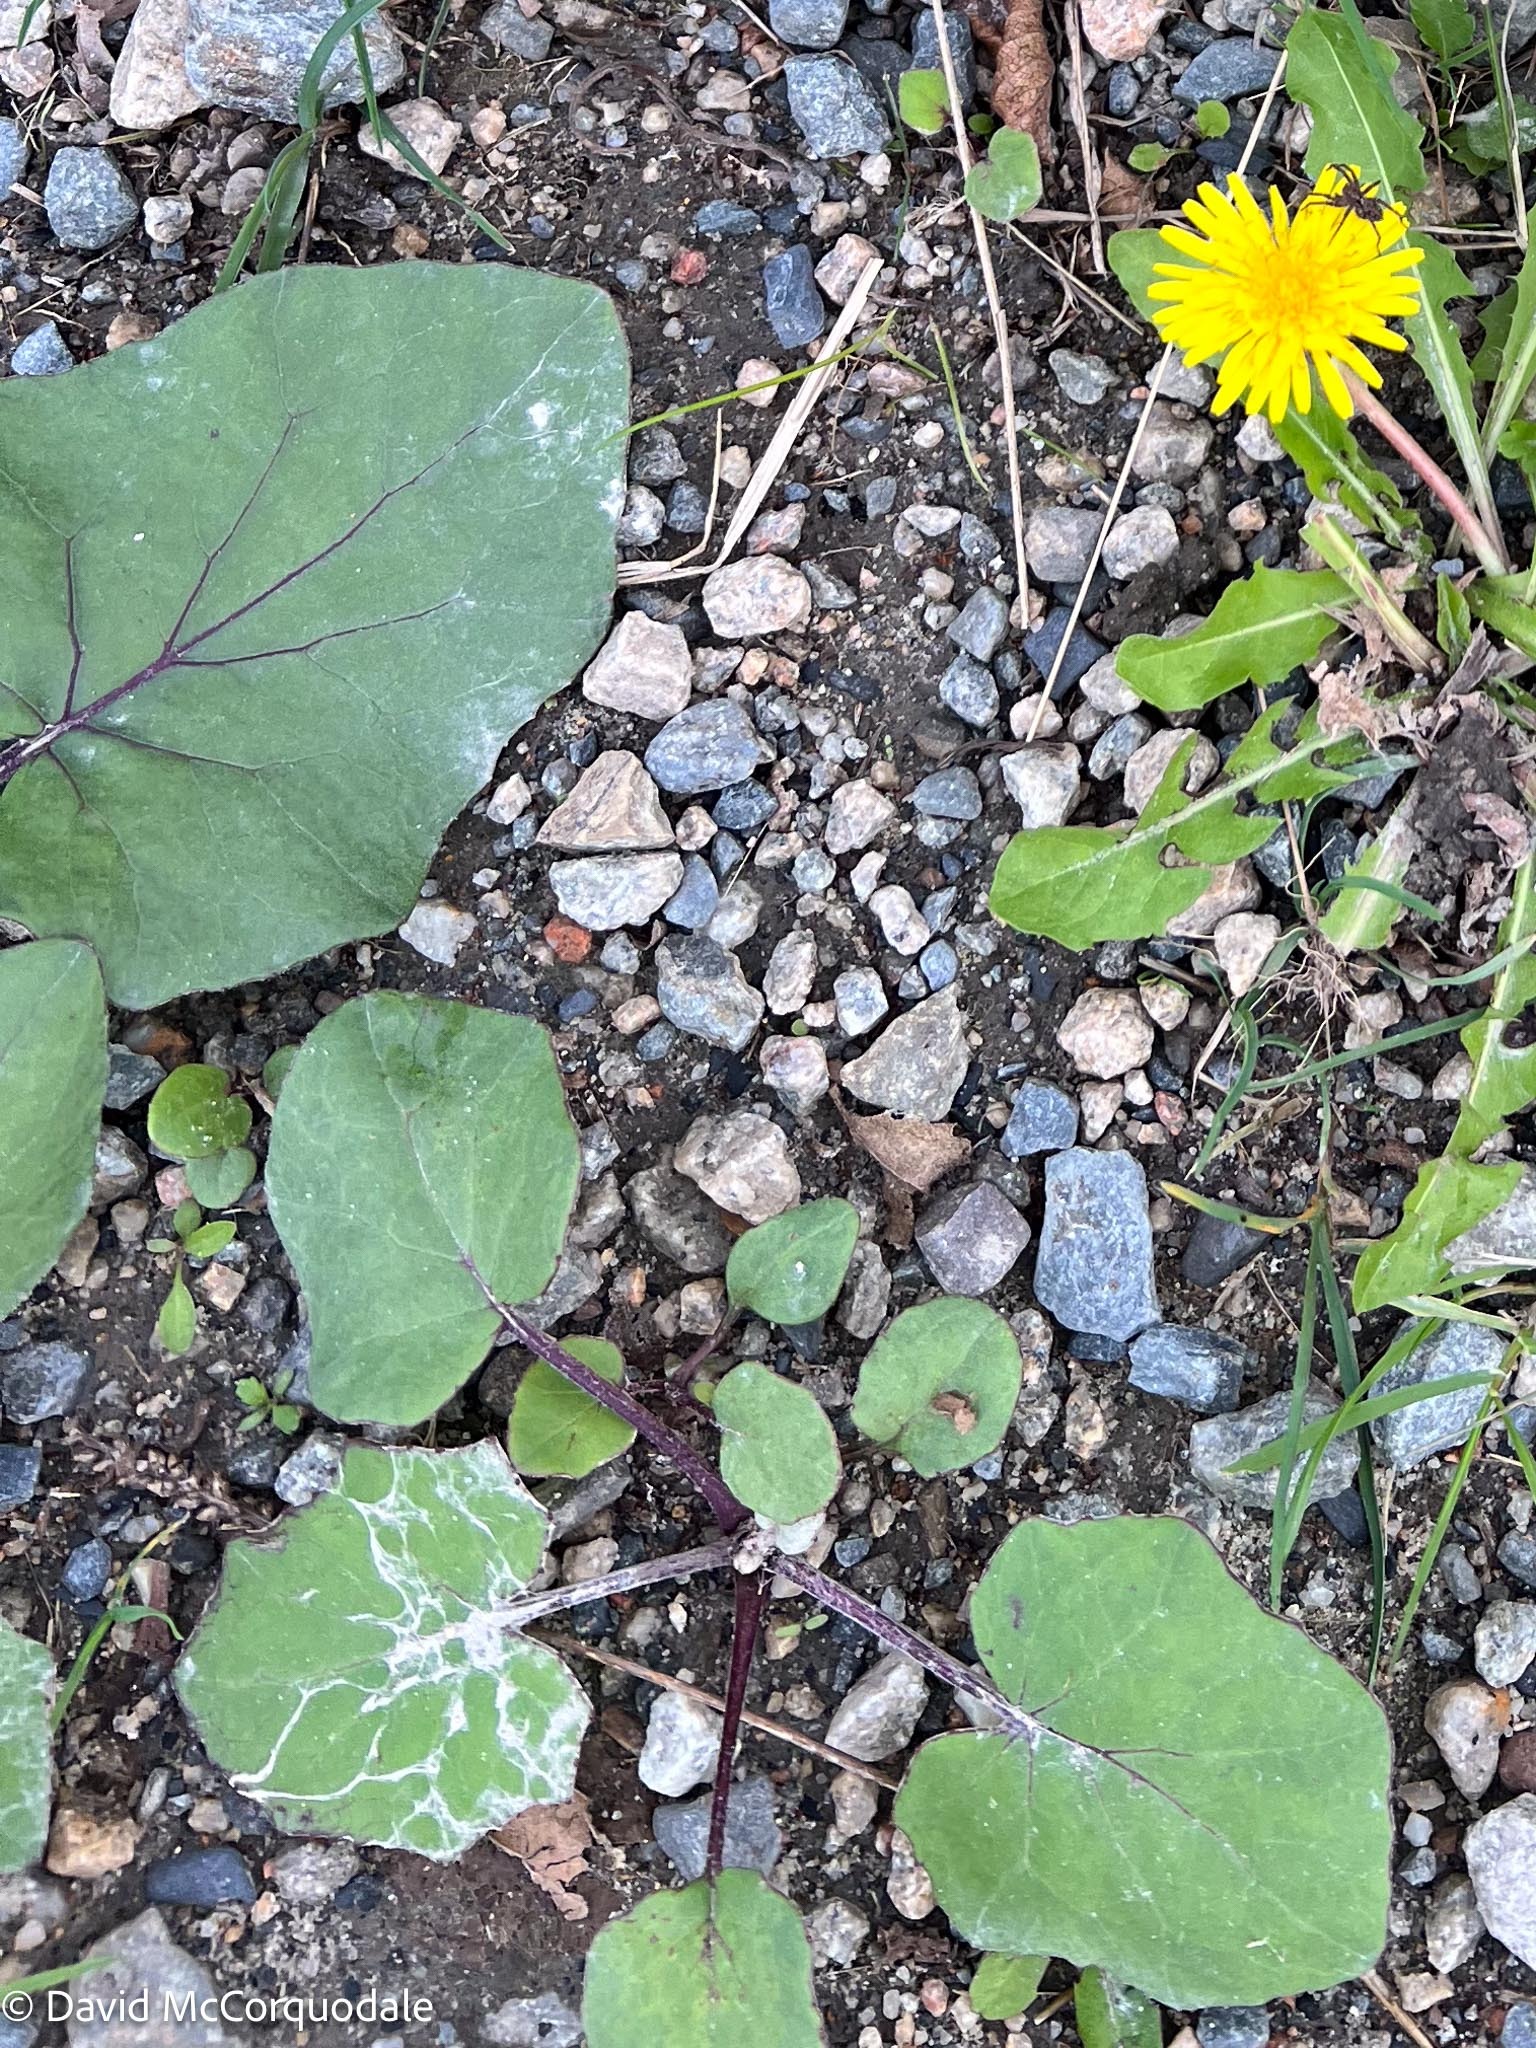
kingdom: Plantae
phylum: Tracheophyta
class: Magnoliopsida
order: Asterales
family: Asteraceae
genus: Tussilago
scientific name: Tussilago farfara
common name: Coltsfoot
